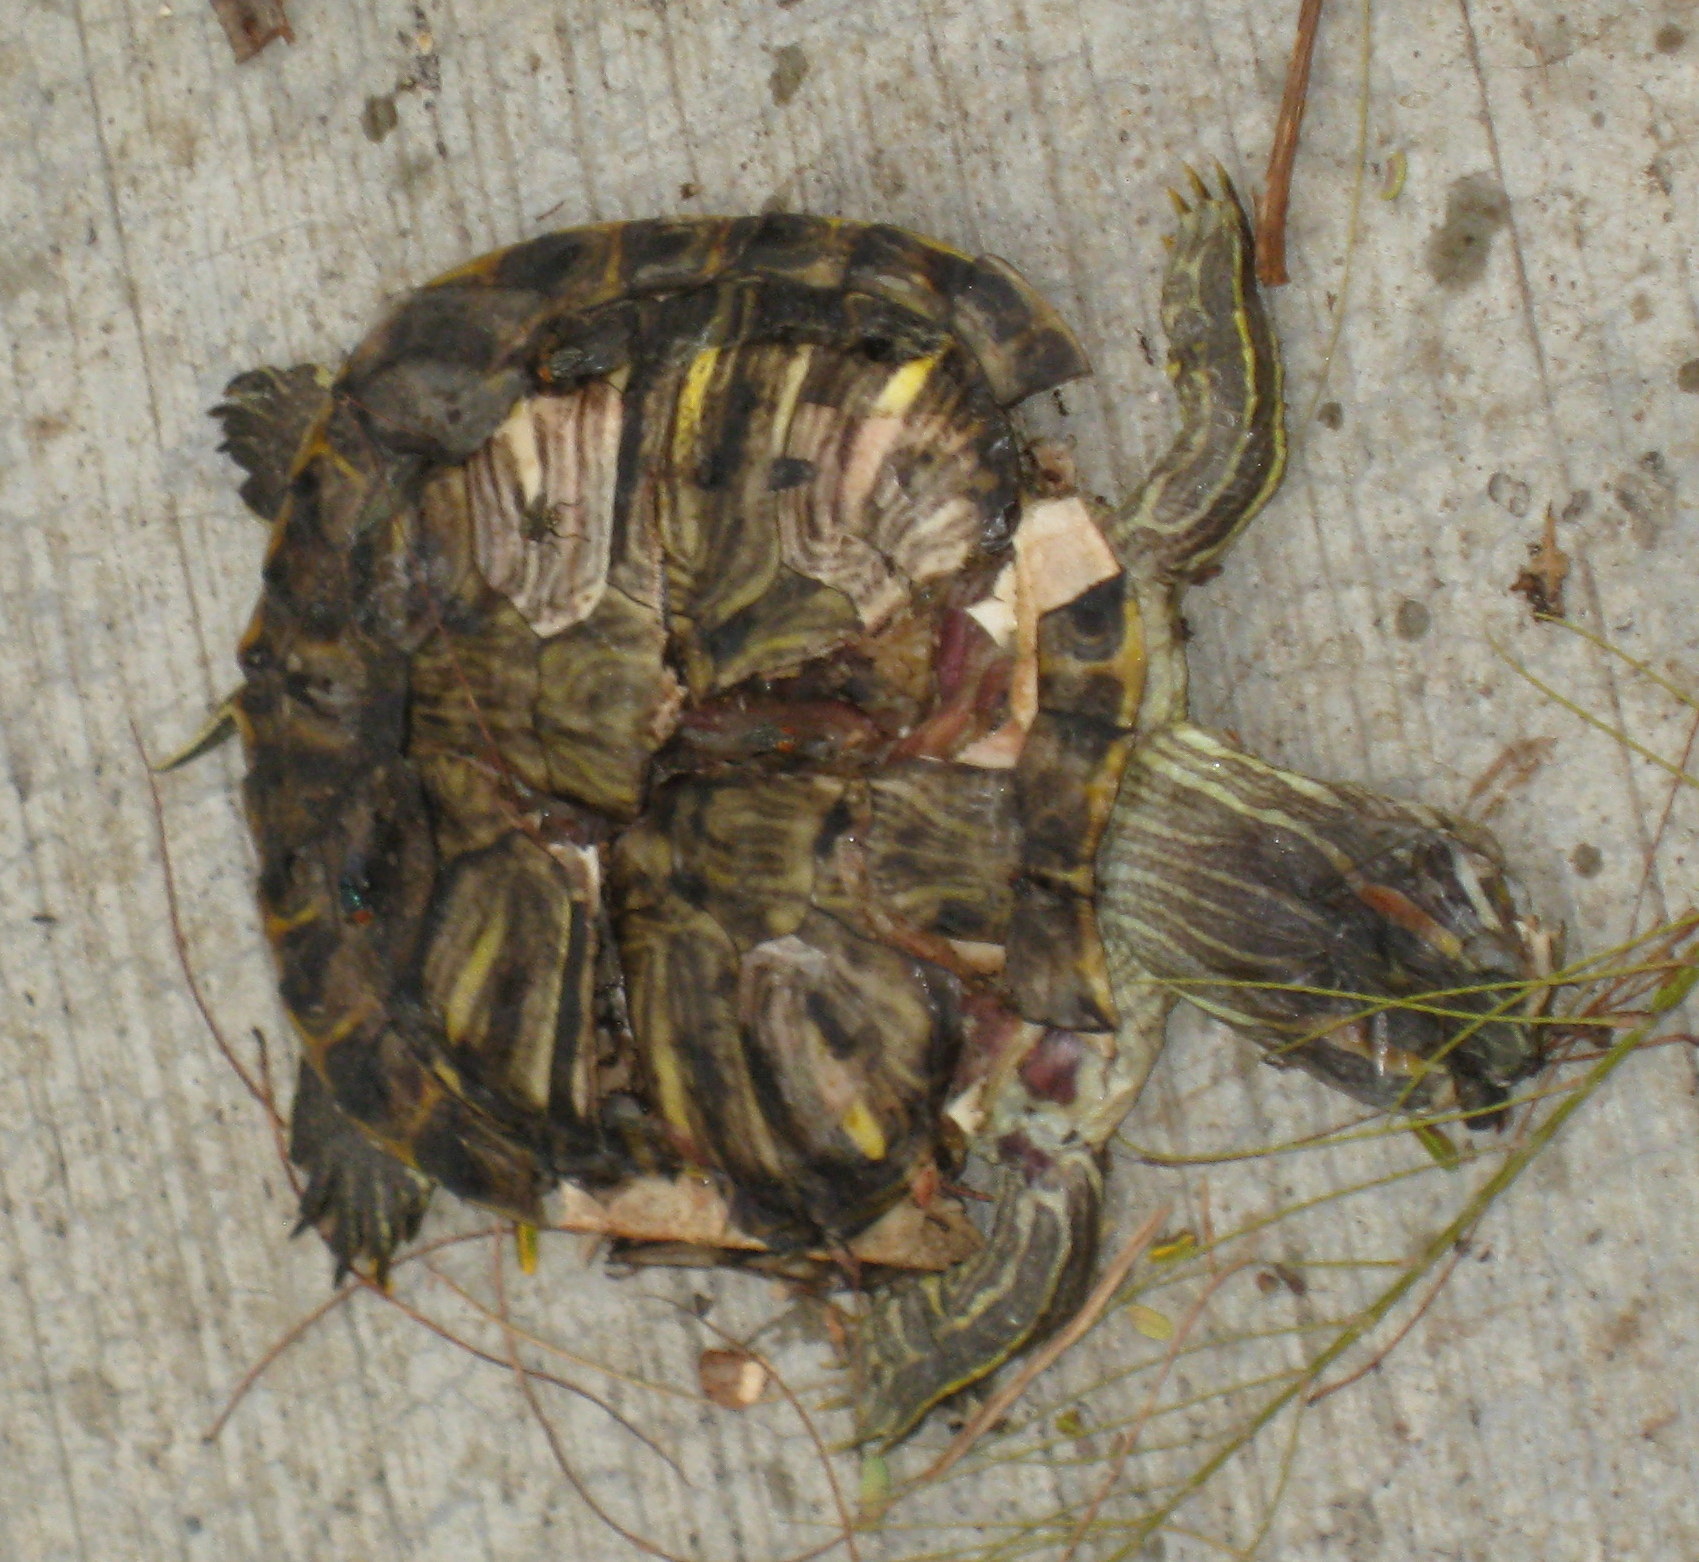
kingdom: Animalia
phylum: Chordata
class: Testudines
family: Emydidae
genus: Trachemys
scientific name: Trachemys scripta
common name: Slider
